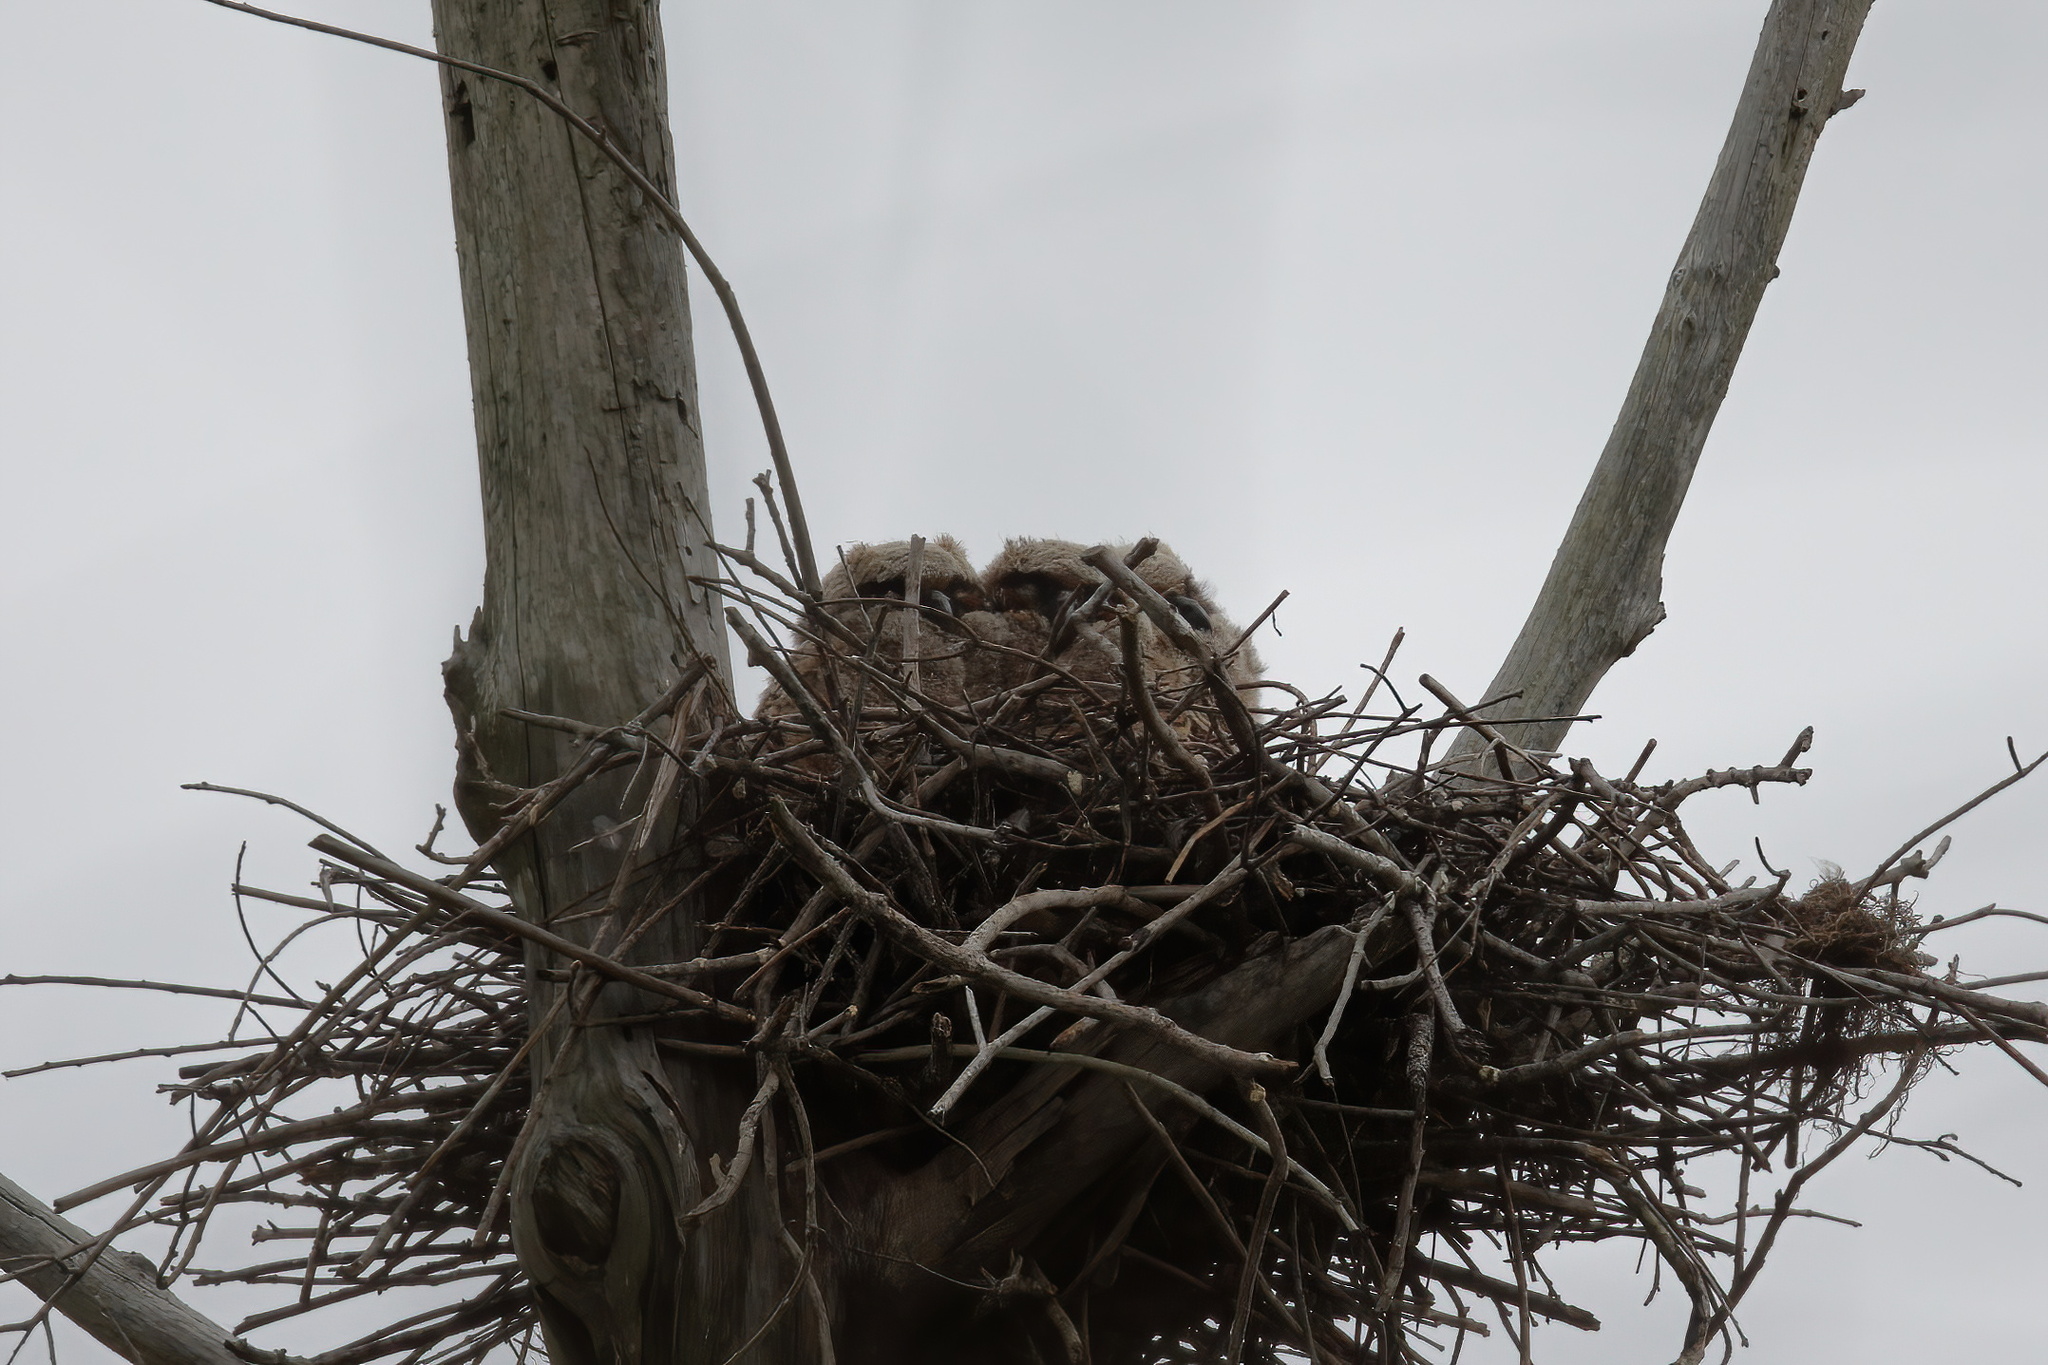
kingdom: Animalia
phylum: Chordata
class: Aves
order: Strigiformes
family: Strigidae
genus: Bubo
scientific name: Bubo virginianus
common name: Great horned owl
